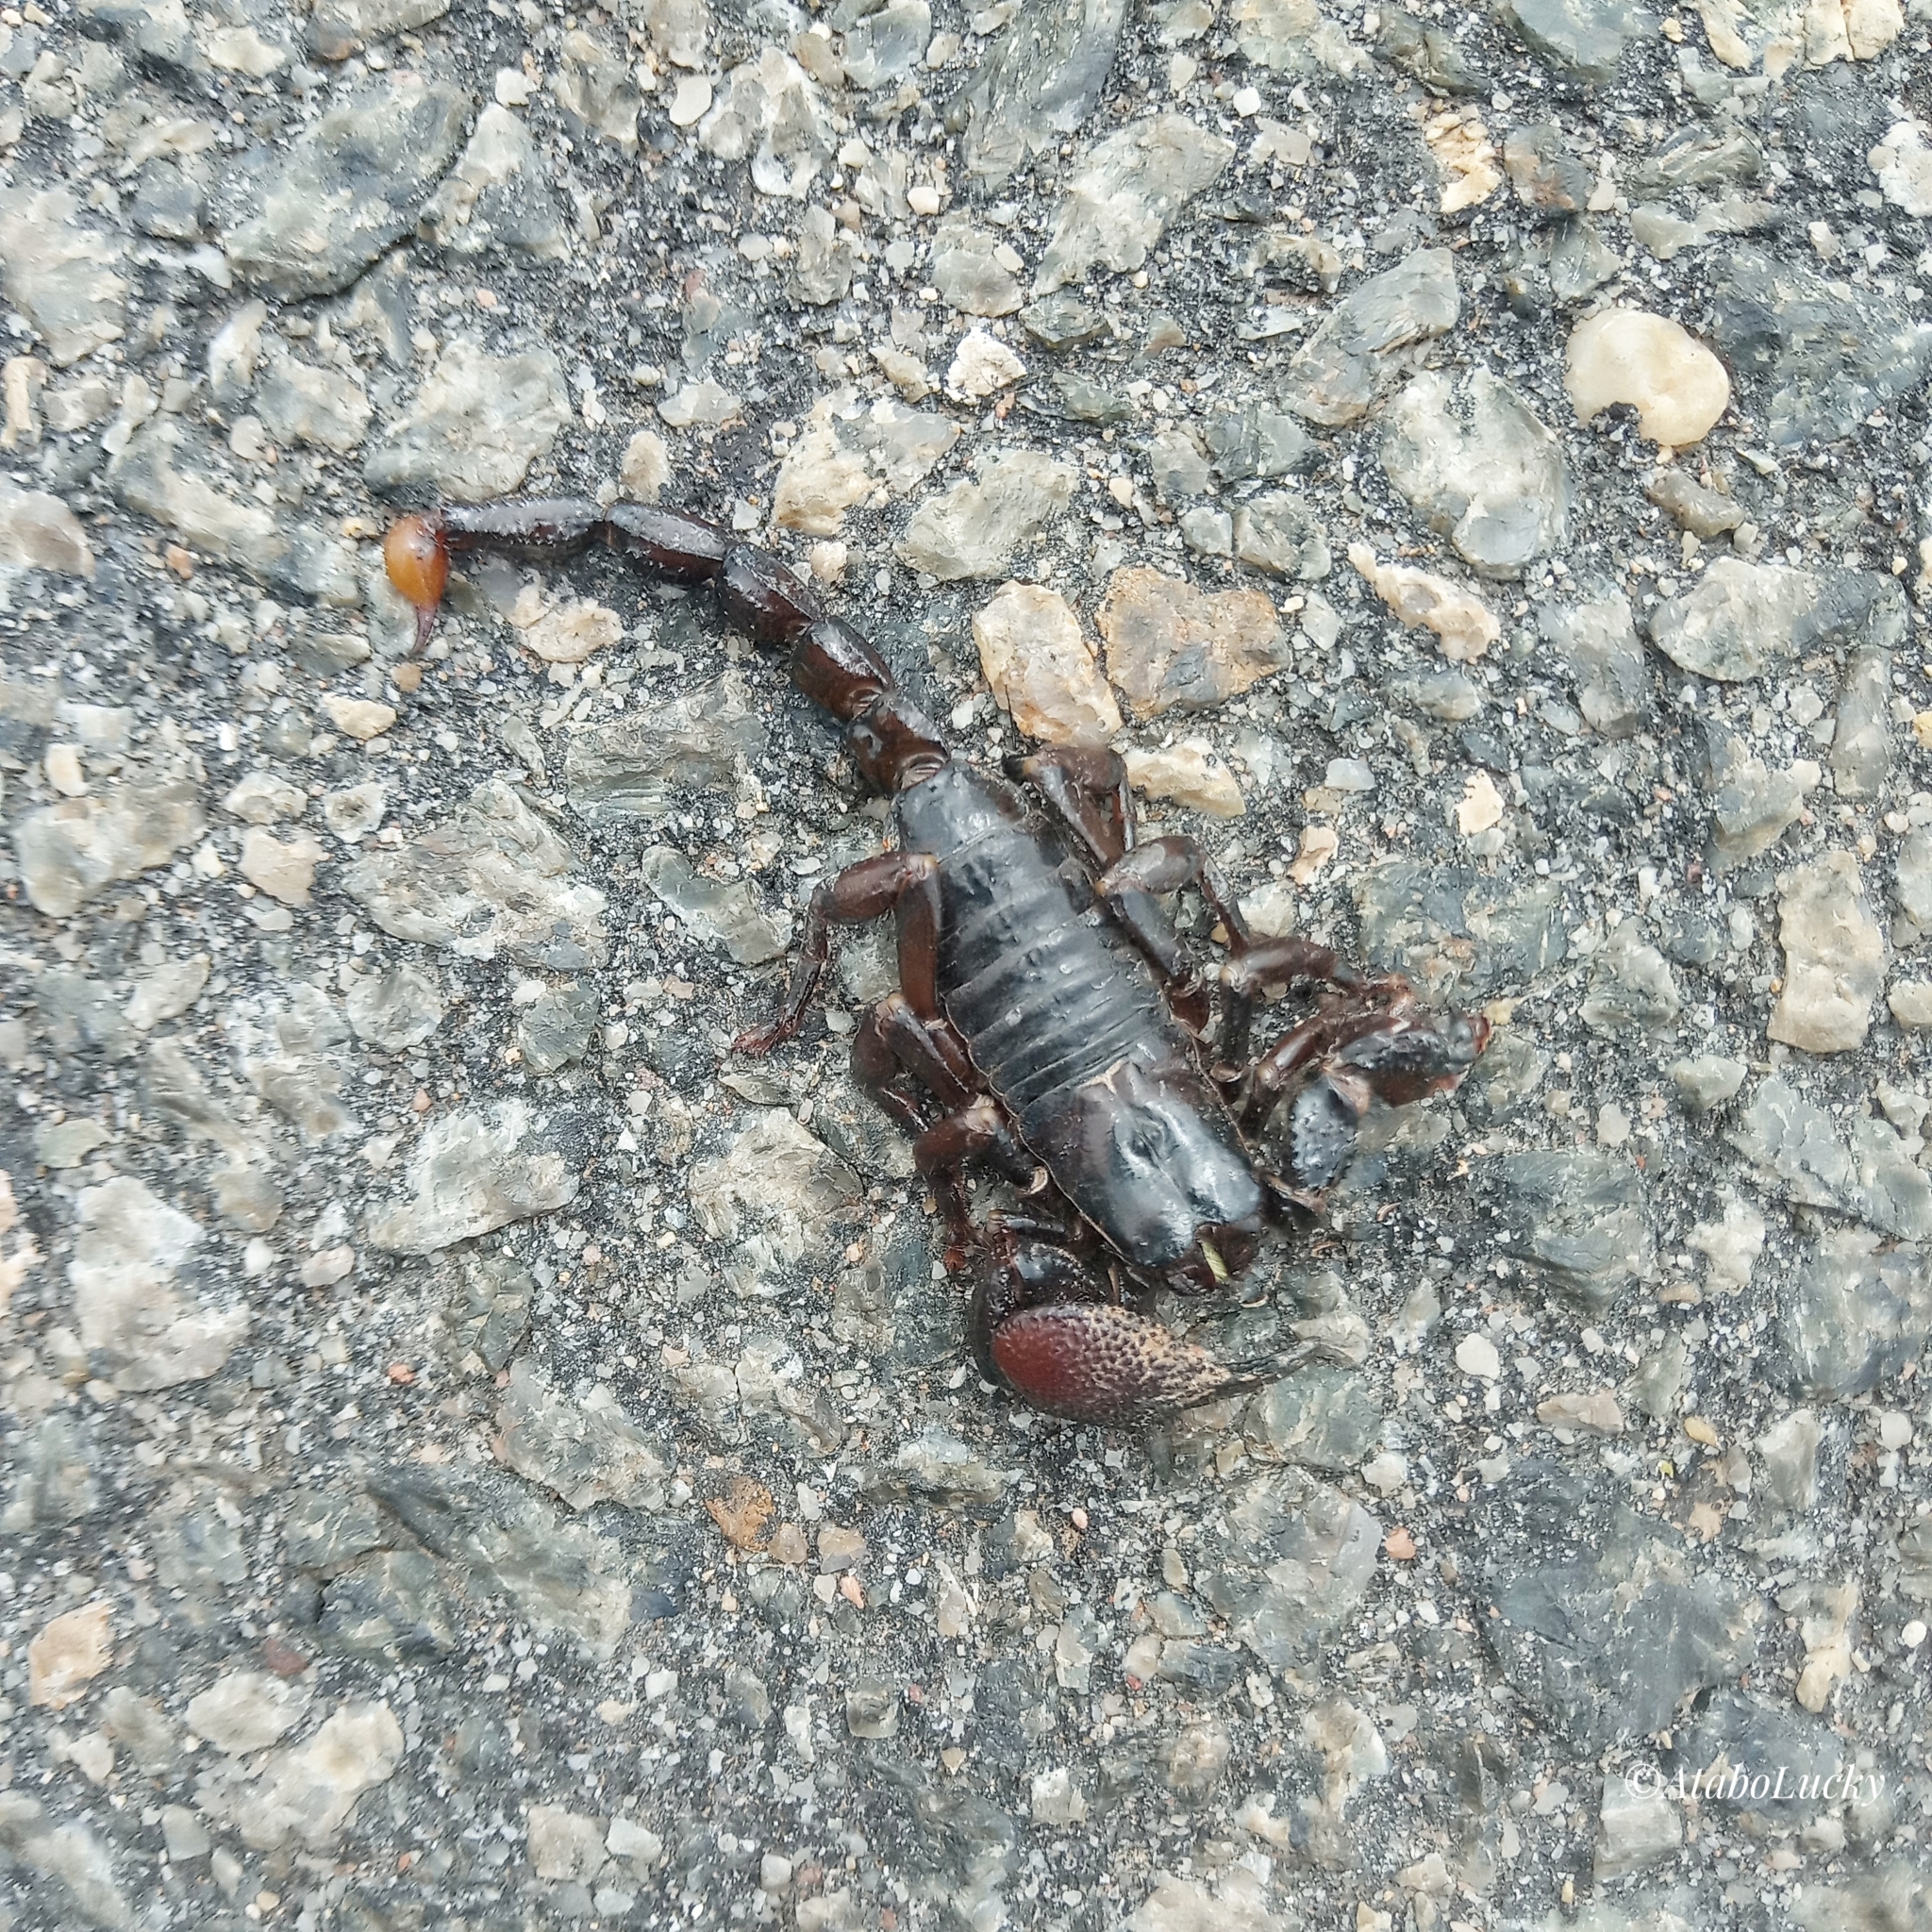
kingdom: Animalia
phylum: Arthropoda
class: Arachnida
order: Scorpiones
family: Scorpionidae
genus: Pandinus
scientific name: Pandinus imperator
